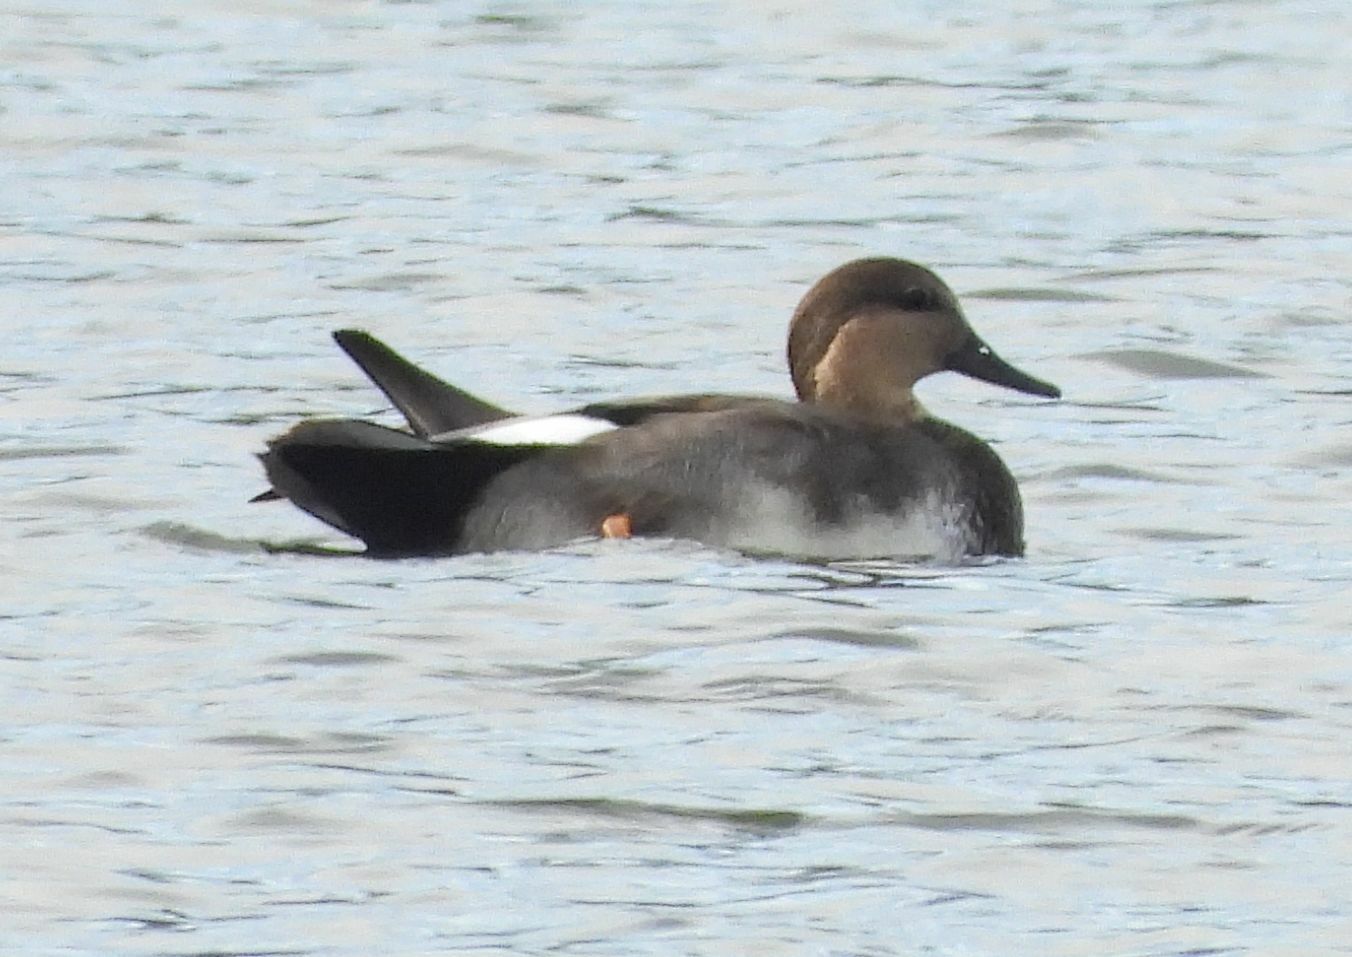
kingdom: Animalia
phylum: Chordata
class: Aves
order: Anseriformes
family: Anatidae
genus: Mareca
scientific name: Mareca strepera
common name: Gadwall
